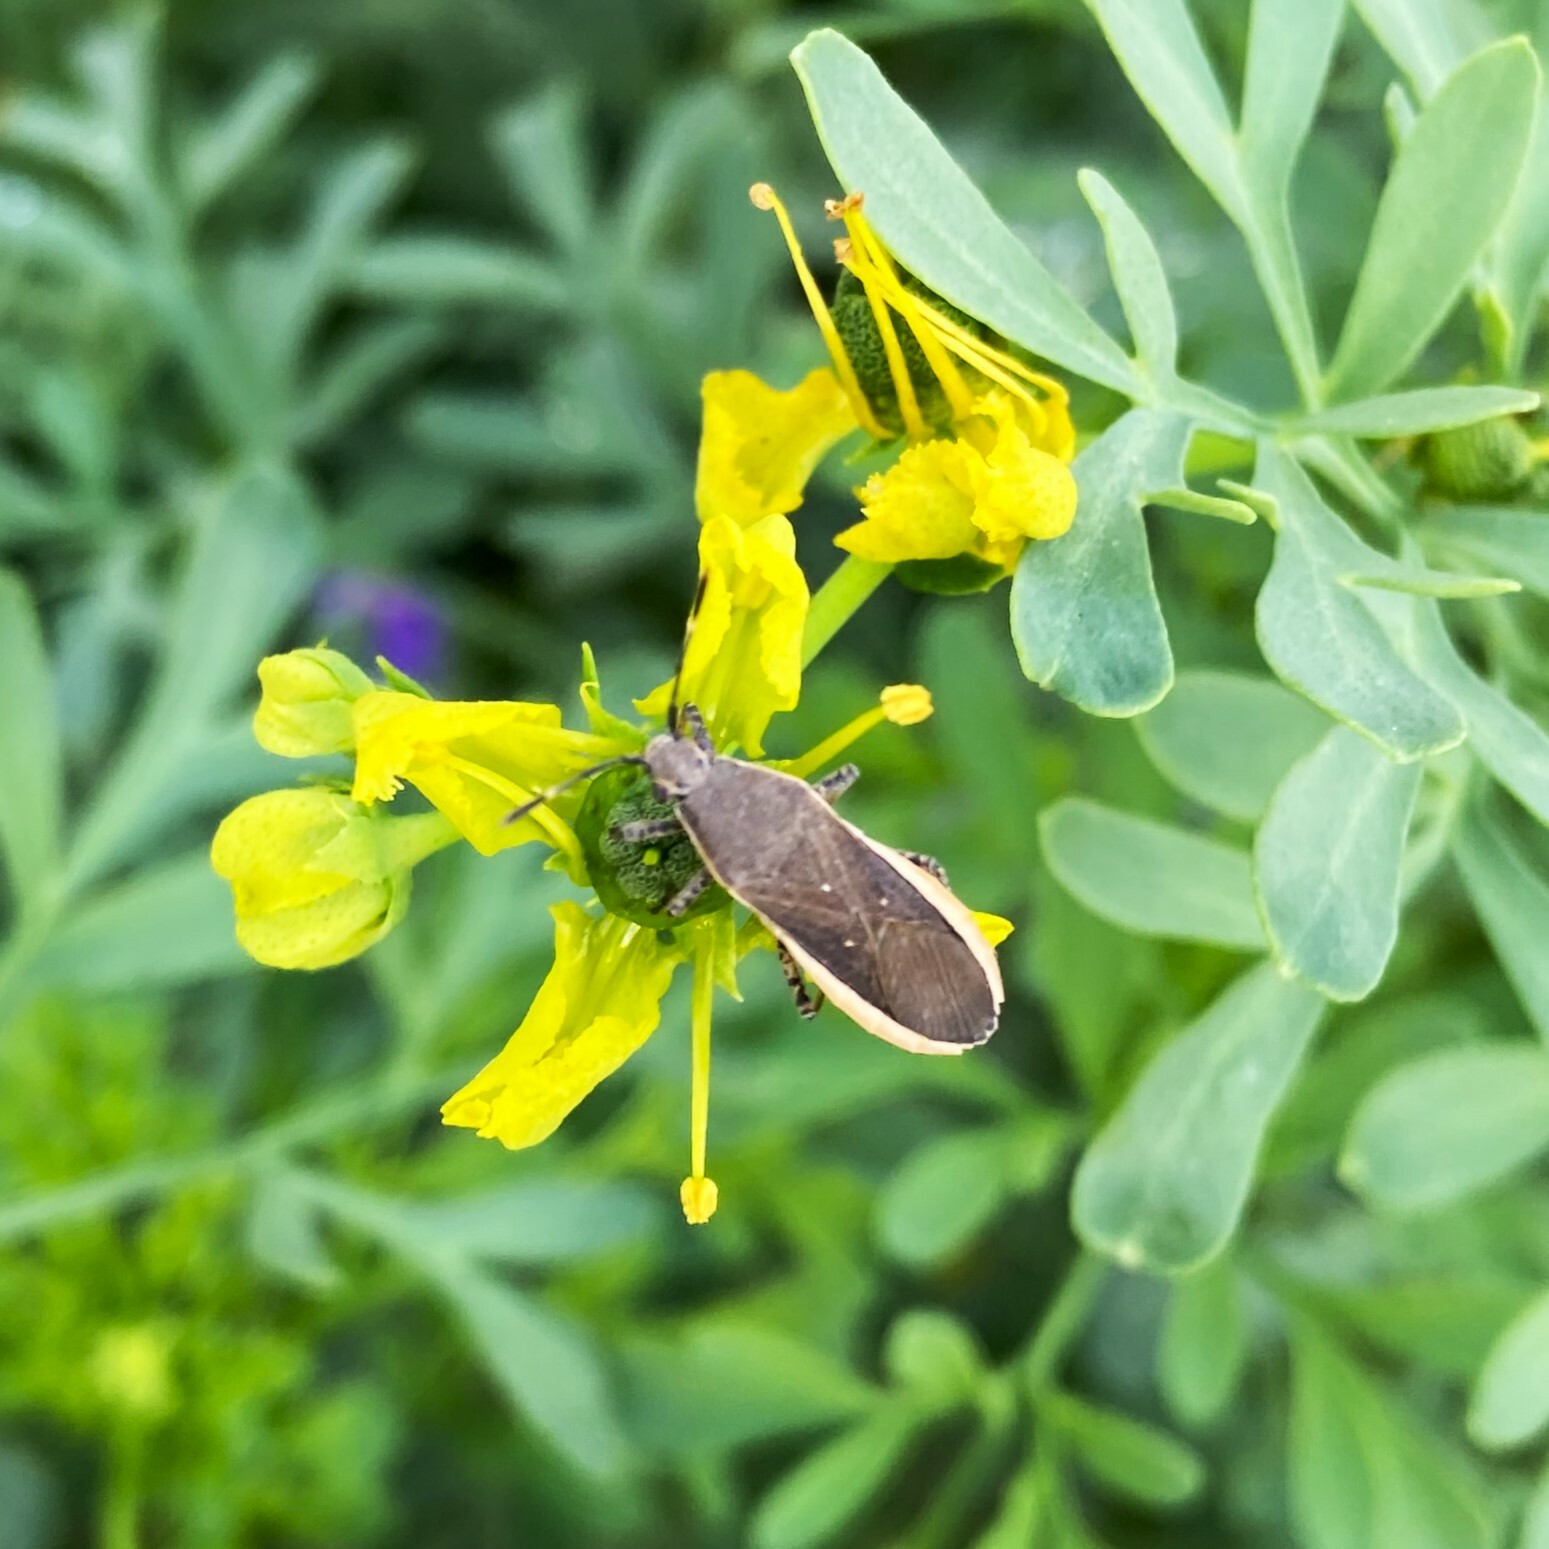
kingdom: Animalia
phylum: Arthropoda
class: Insecta
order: Hemiptera
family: Coreidae
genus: Catorhintha
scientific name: Catorhintha texana
